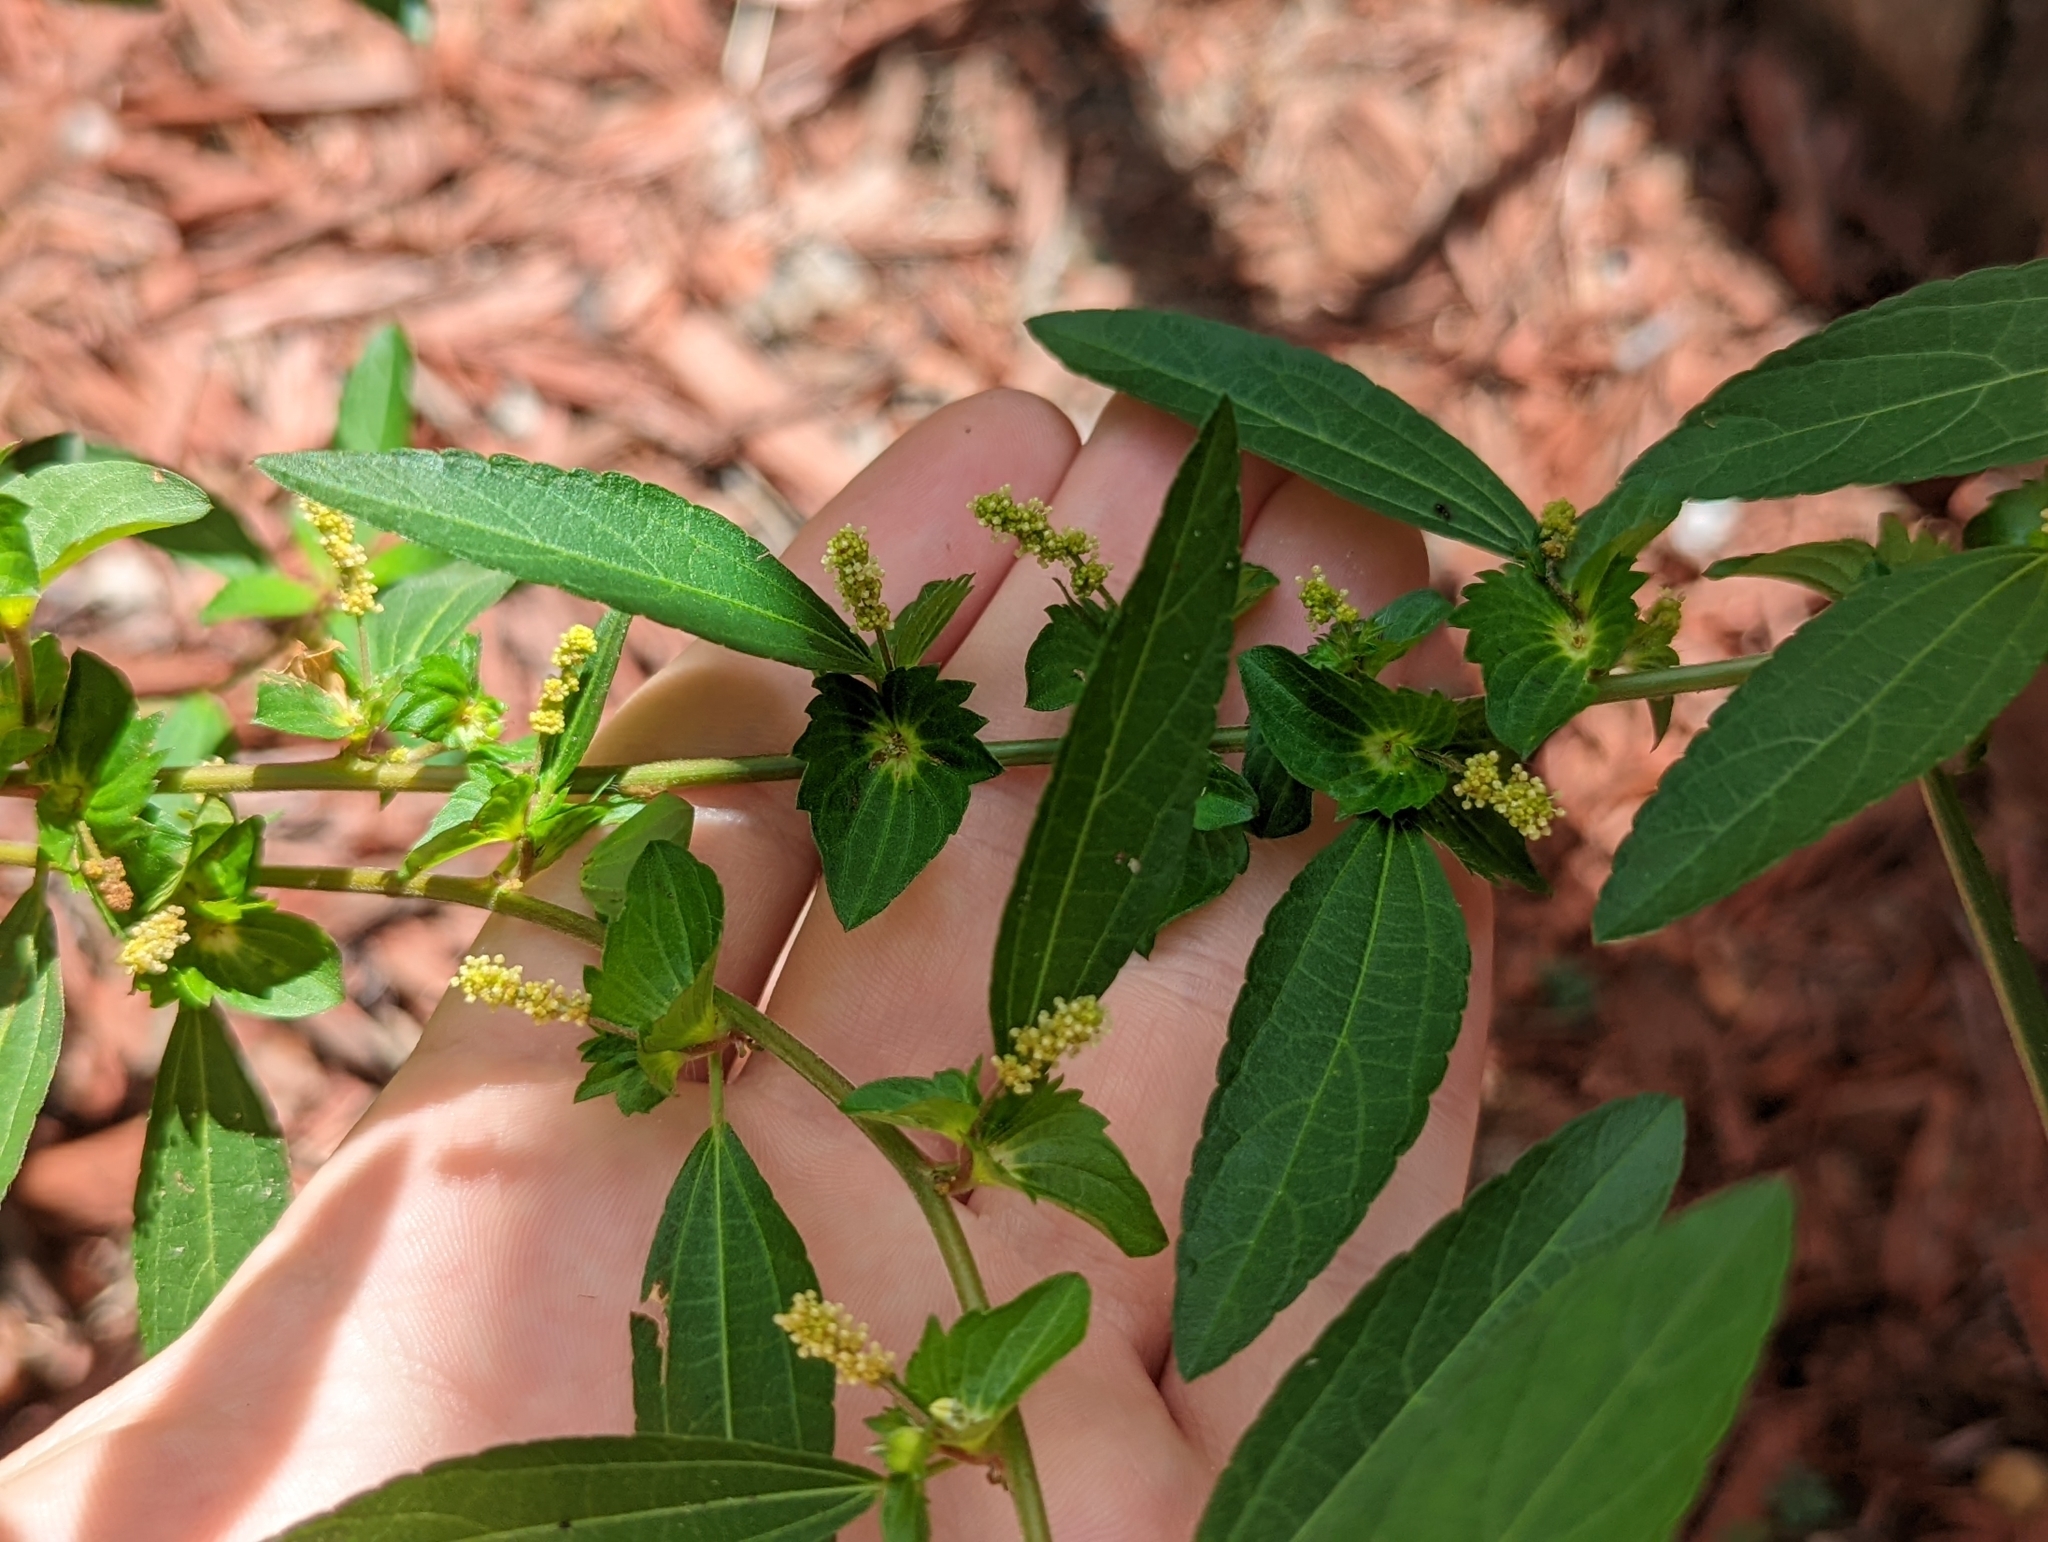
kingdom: Plantae
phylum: Tracheophyta
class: Magnoliopsida
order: Malpighiales
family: Euphorbiaceae
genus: Acalypha
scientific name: Acalypha gracilens
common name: Slender three-seeded mercury
